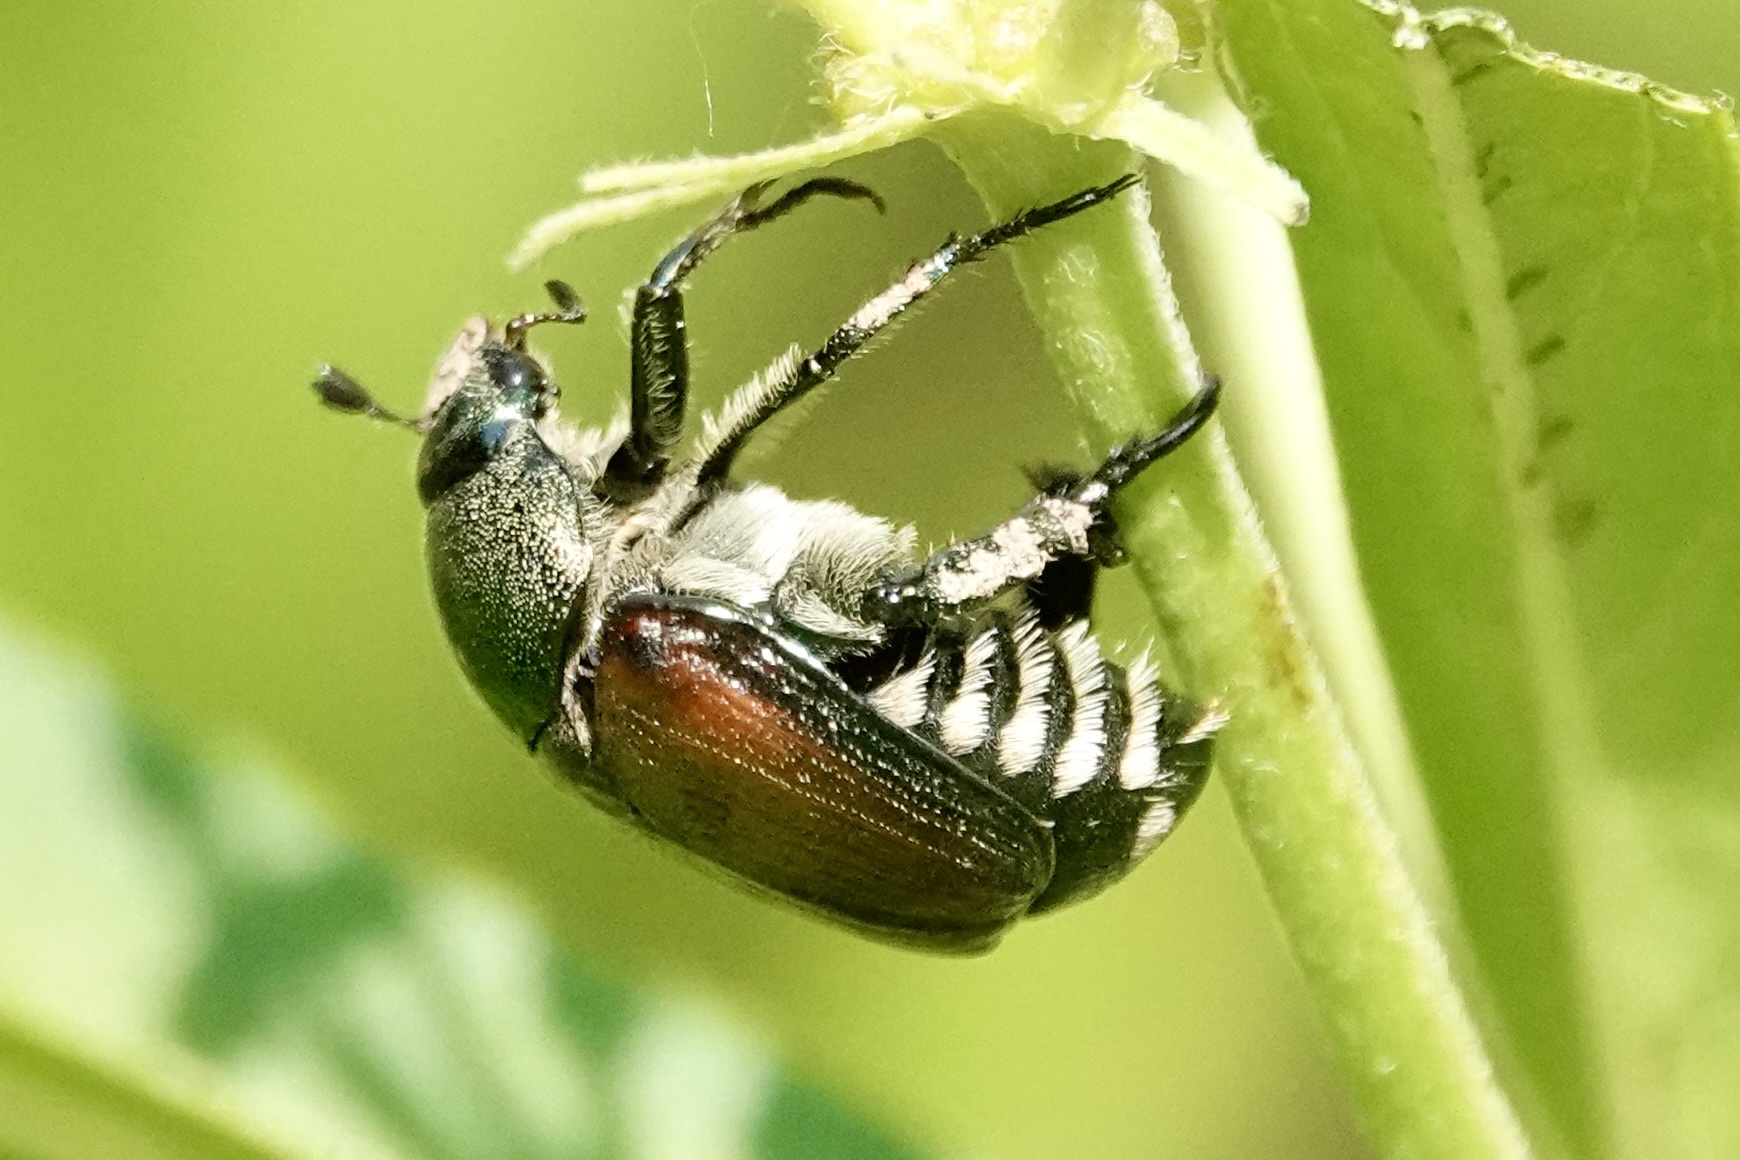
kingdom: Animalia
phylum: Arthropoda
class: Insecta
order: Coleoptera
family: Scarabaeidae
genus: Popillia
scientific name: Popillia japonica
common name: Japanese beetle
